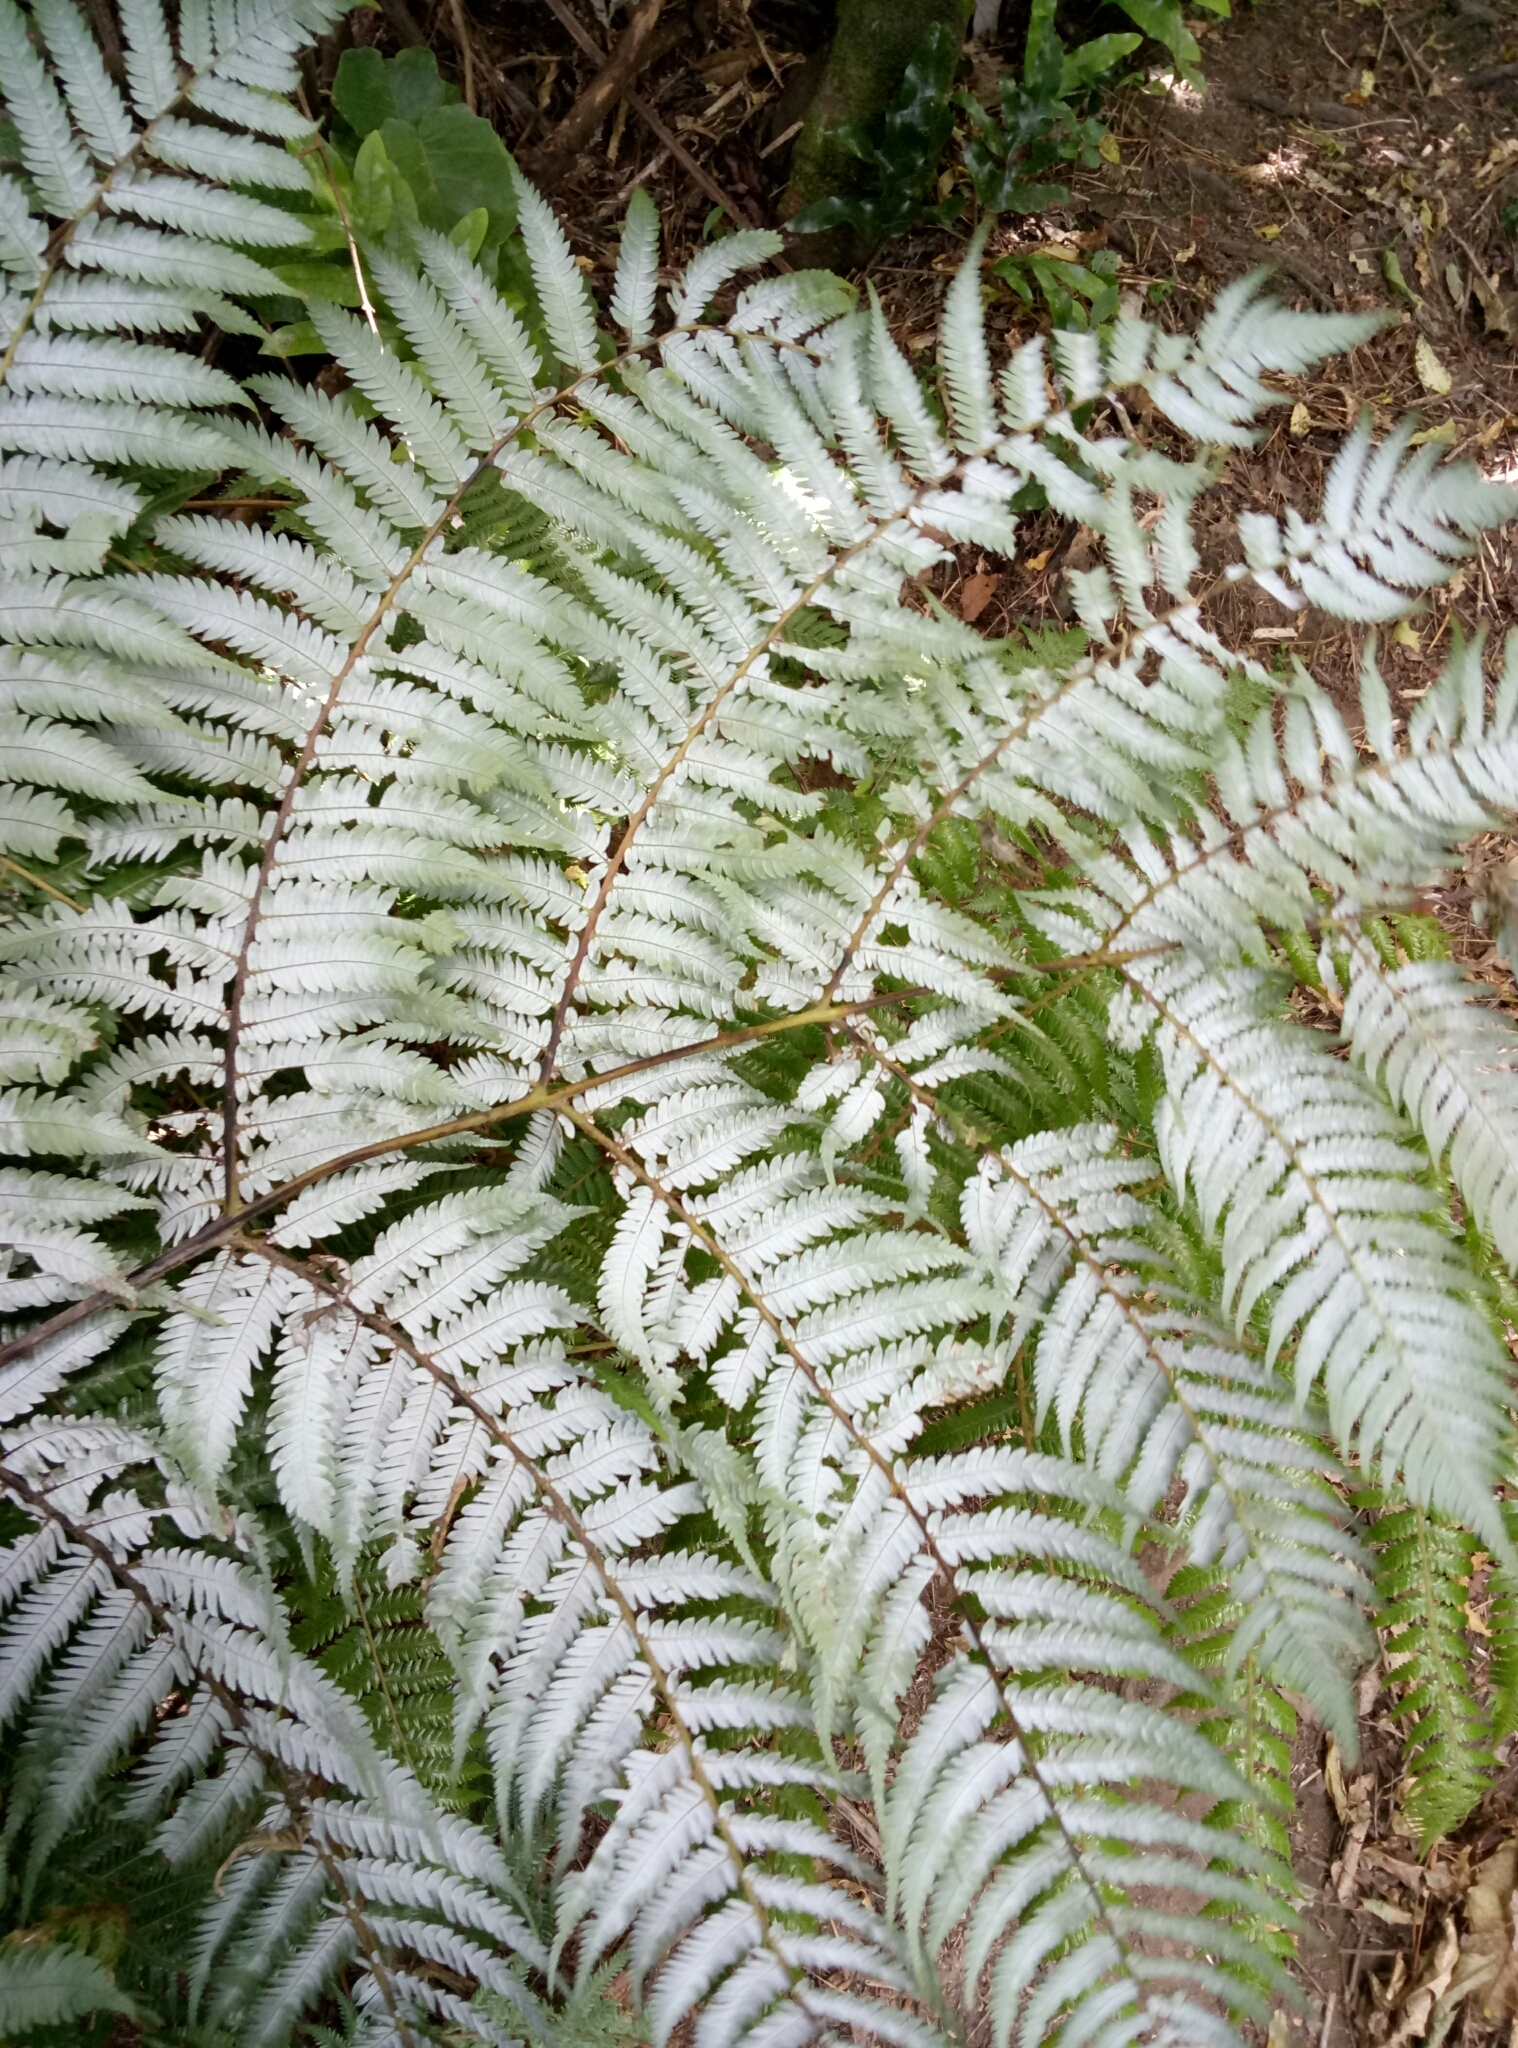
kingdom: Plantae
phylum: Tracheophyta
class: Polypodiopsida
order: Cyatheales
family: Cyatheaceae
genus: Alsophila
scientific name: Alsophila dealbata
